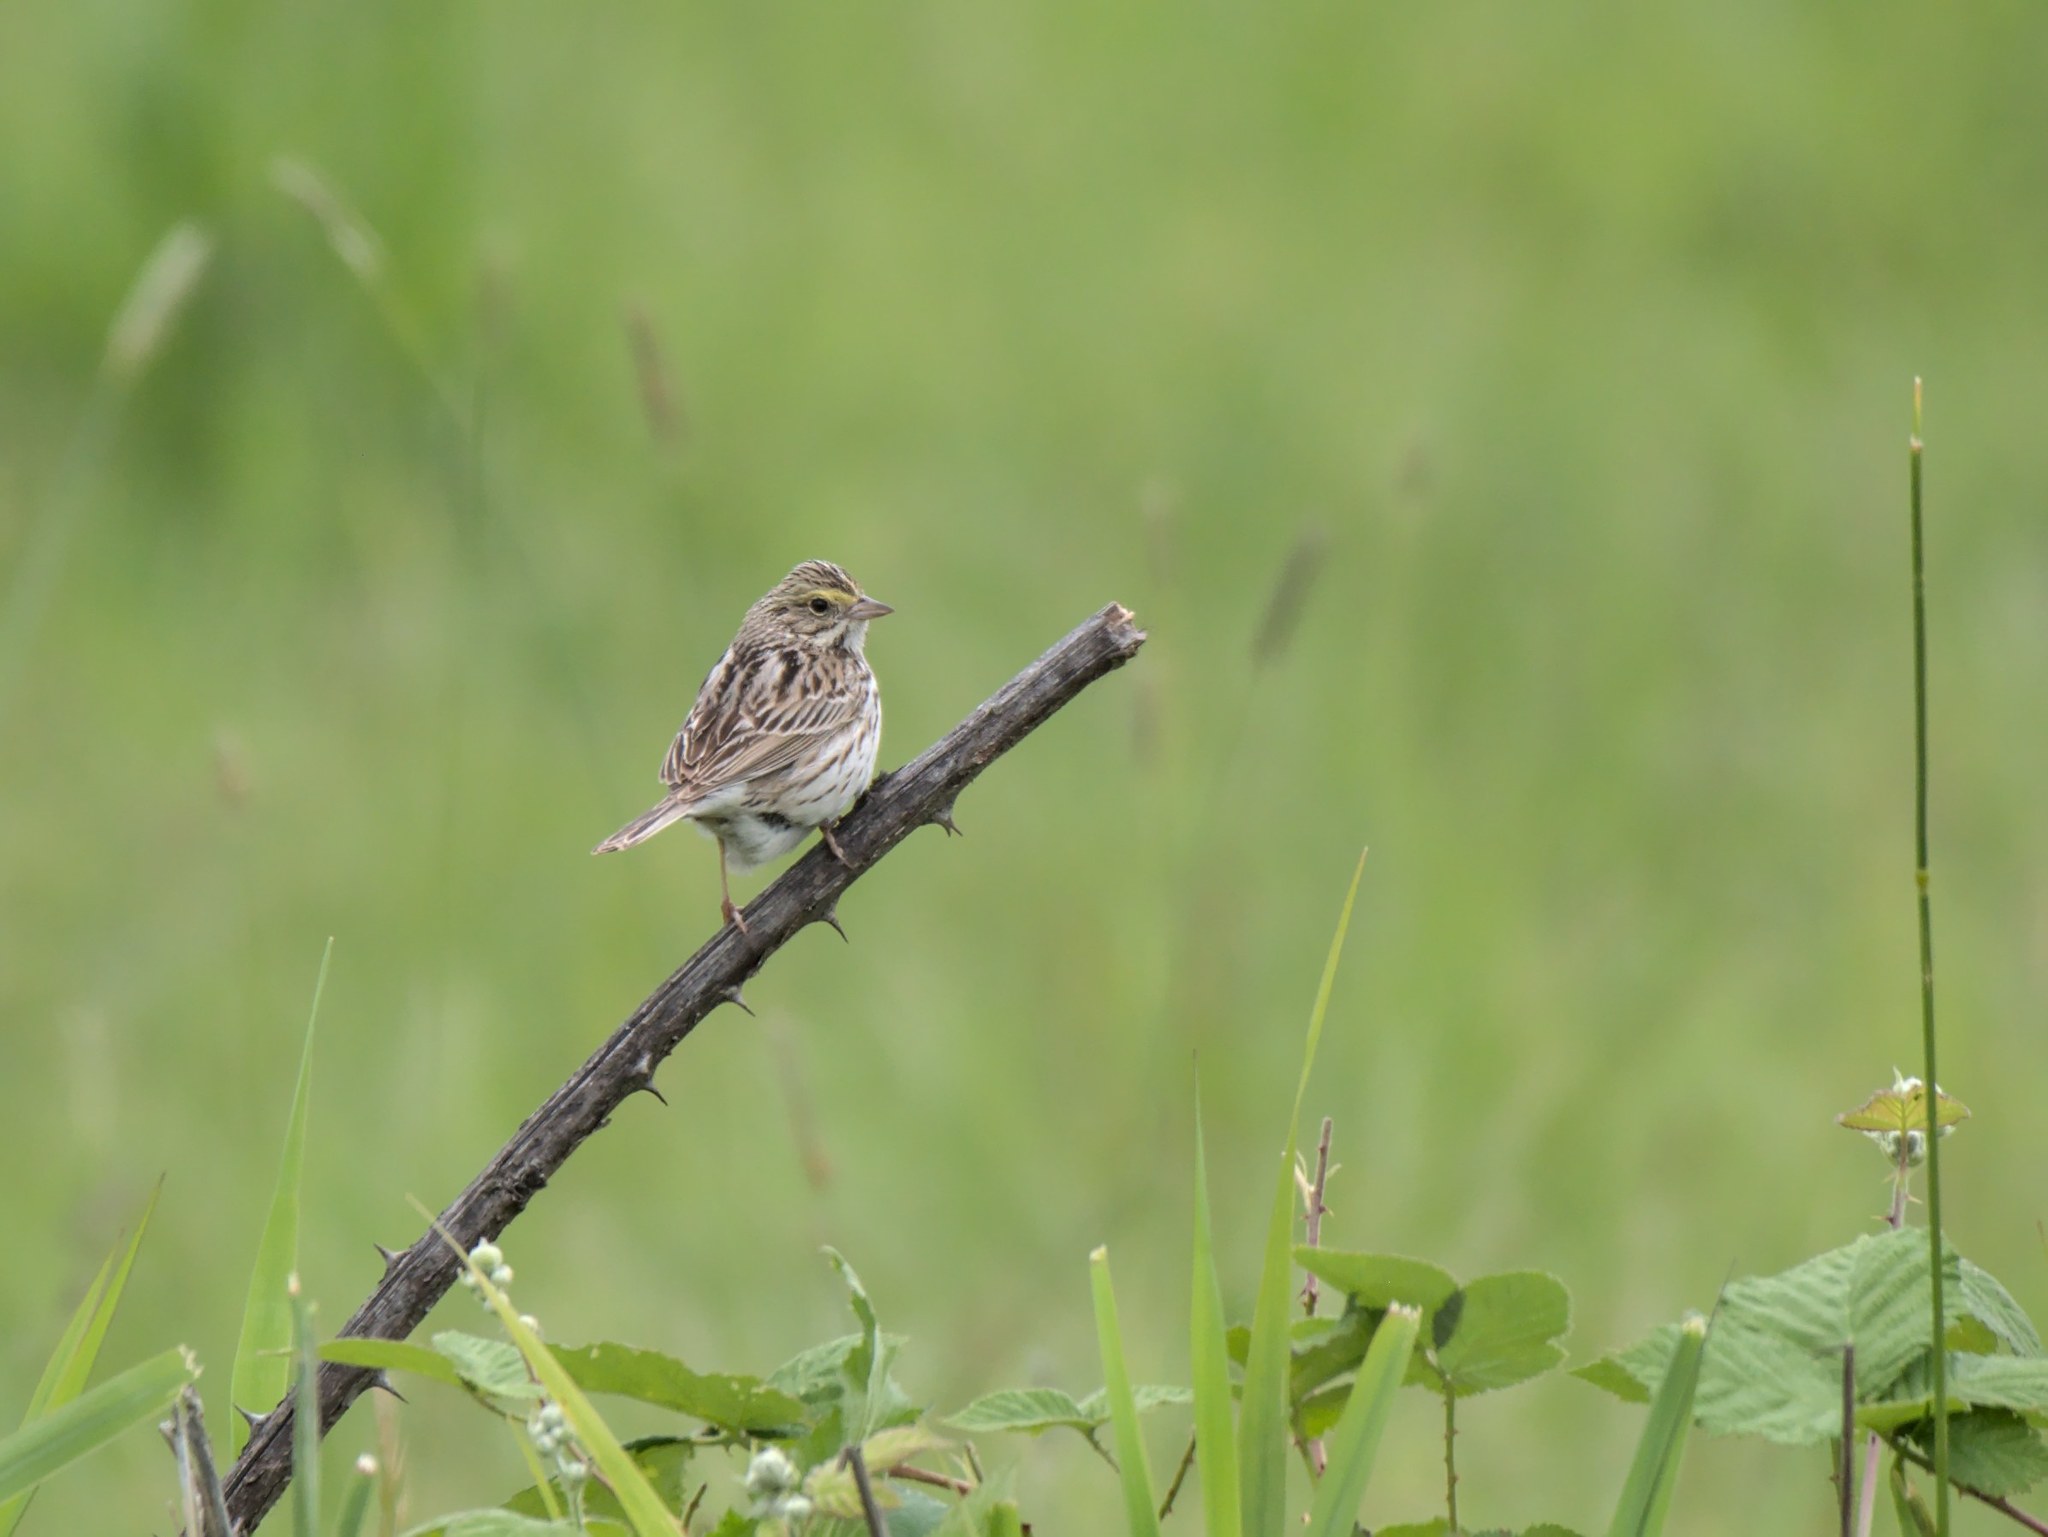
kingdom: Animalia
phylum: Chordata
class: Aves
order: Passeriformes
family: Passerellidae
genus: Passerculus
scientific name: Passerculus sandwichensis
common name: Savannah sparrow
